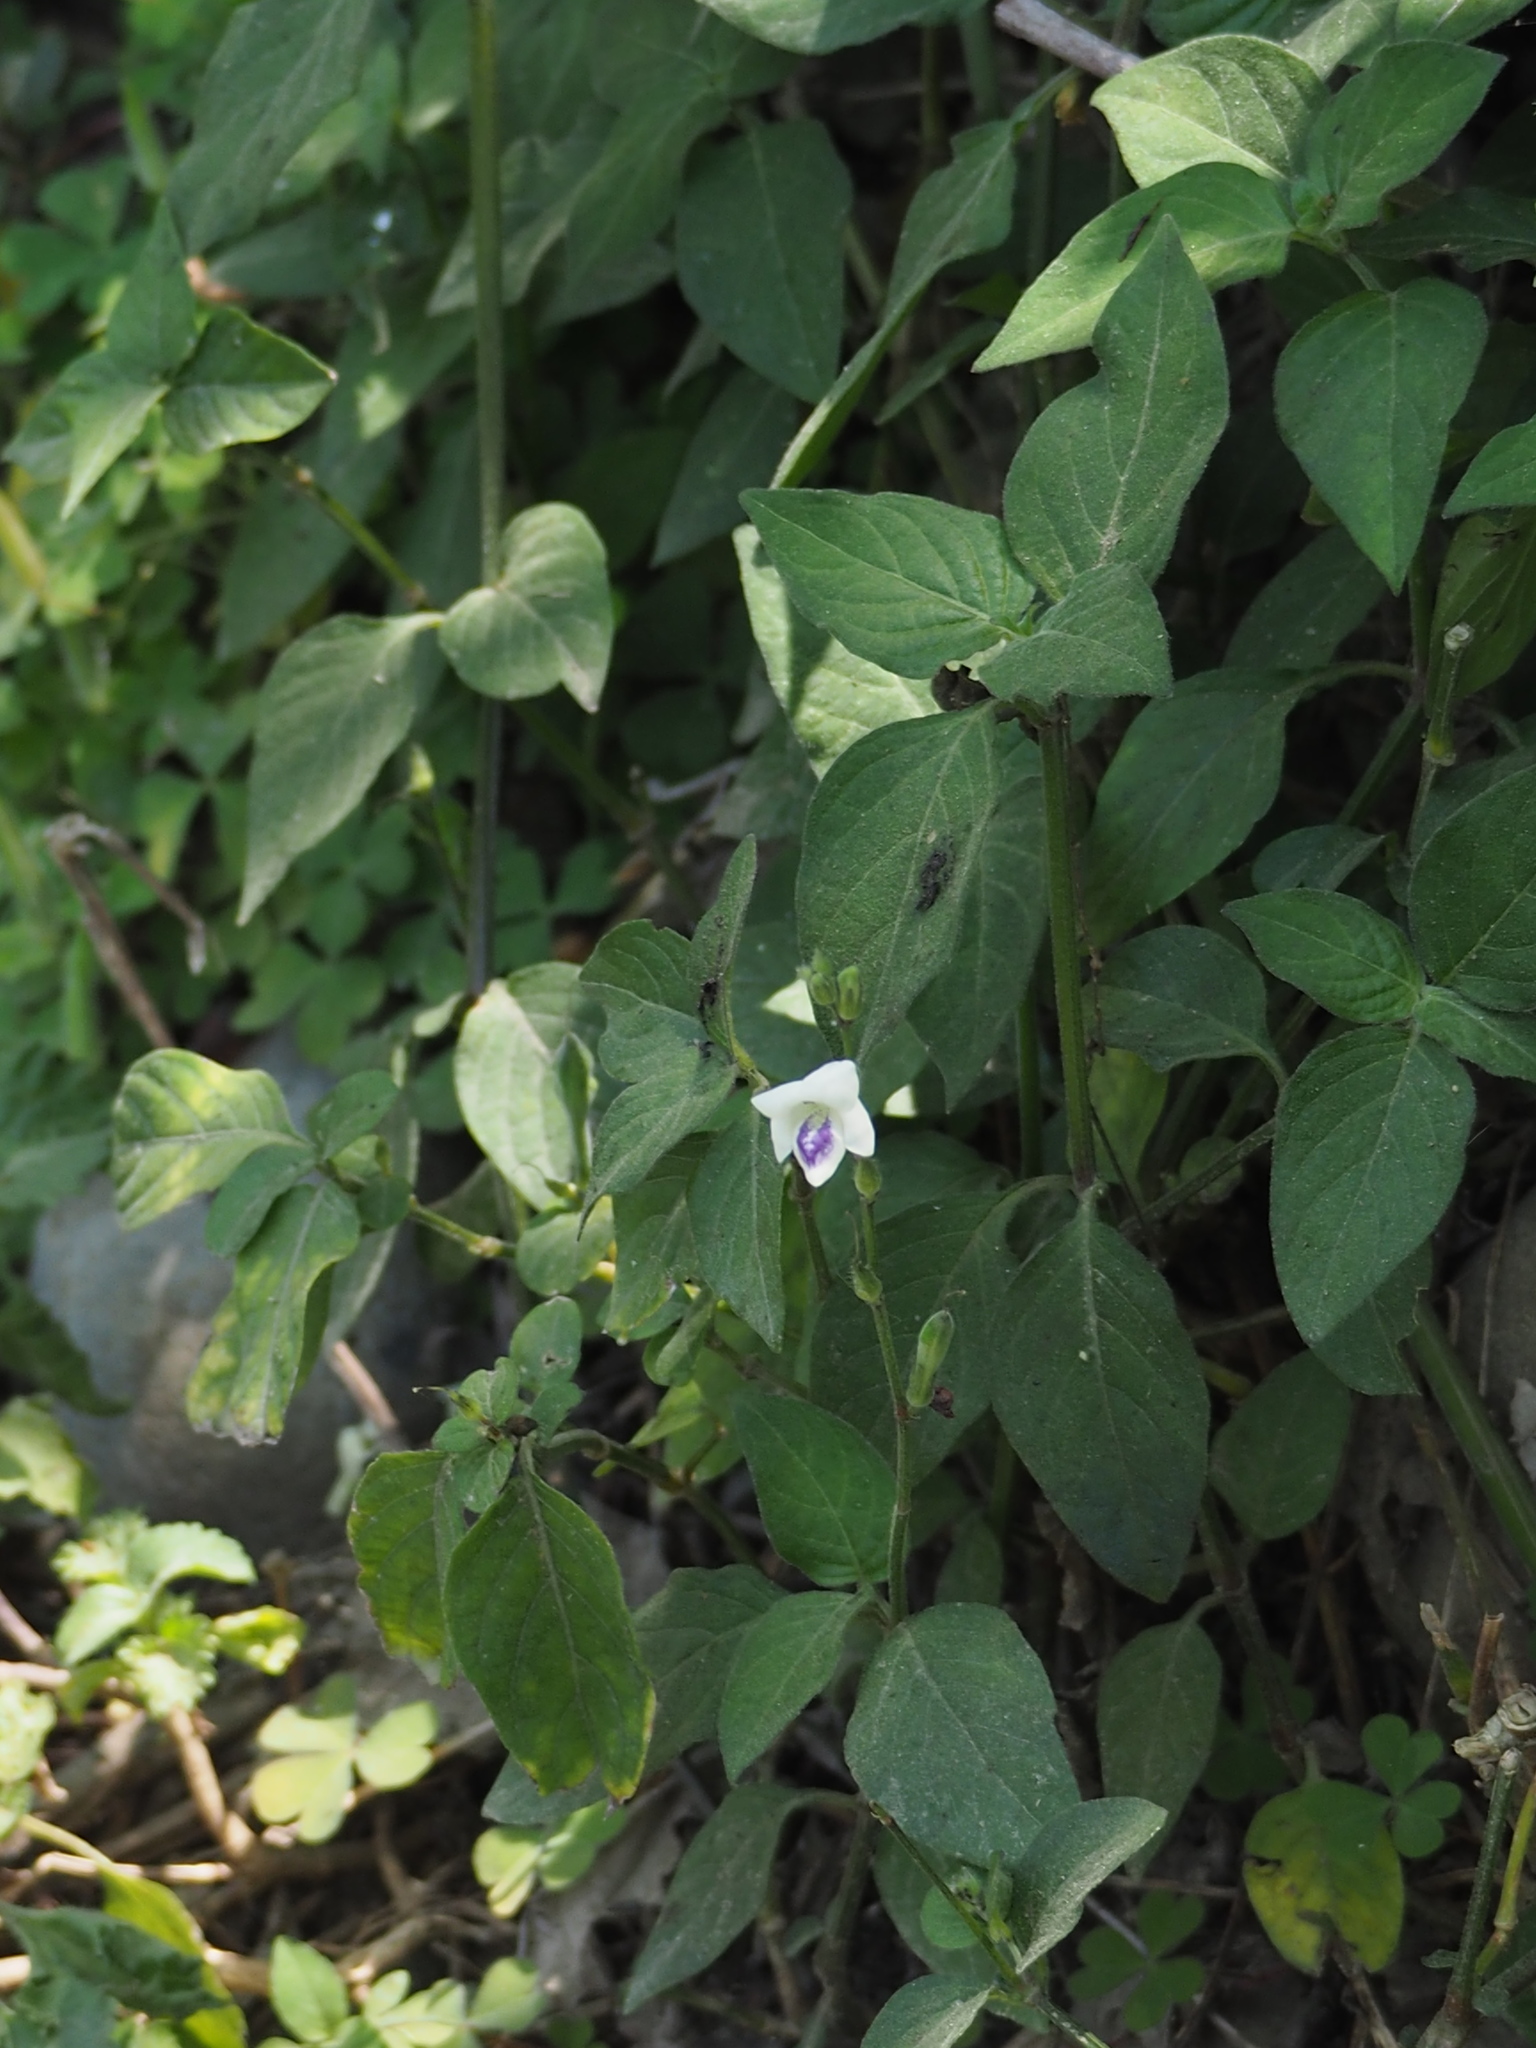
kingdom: Plantae
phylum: Tracheophyta
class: Magnoliopsida
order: Lamiales
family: Acanthaceae
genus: Asystasia
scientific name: Asystasia intrusa
